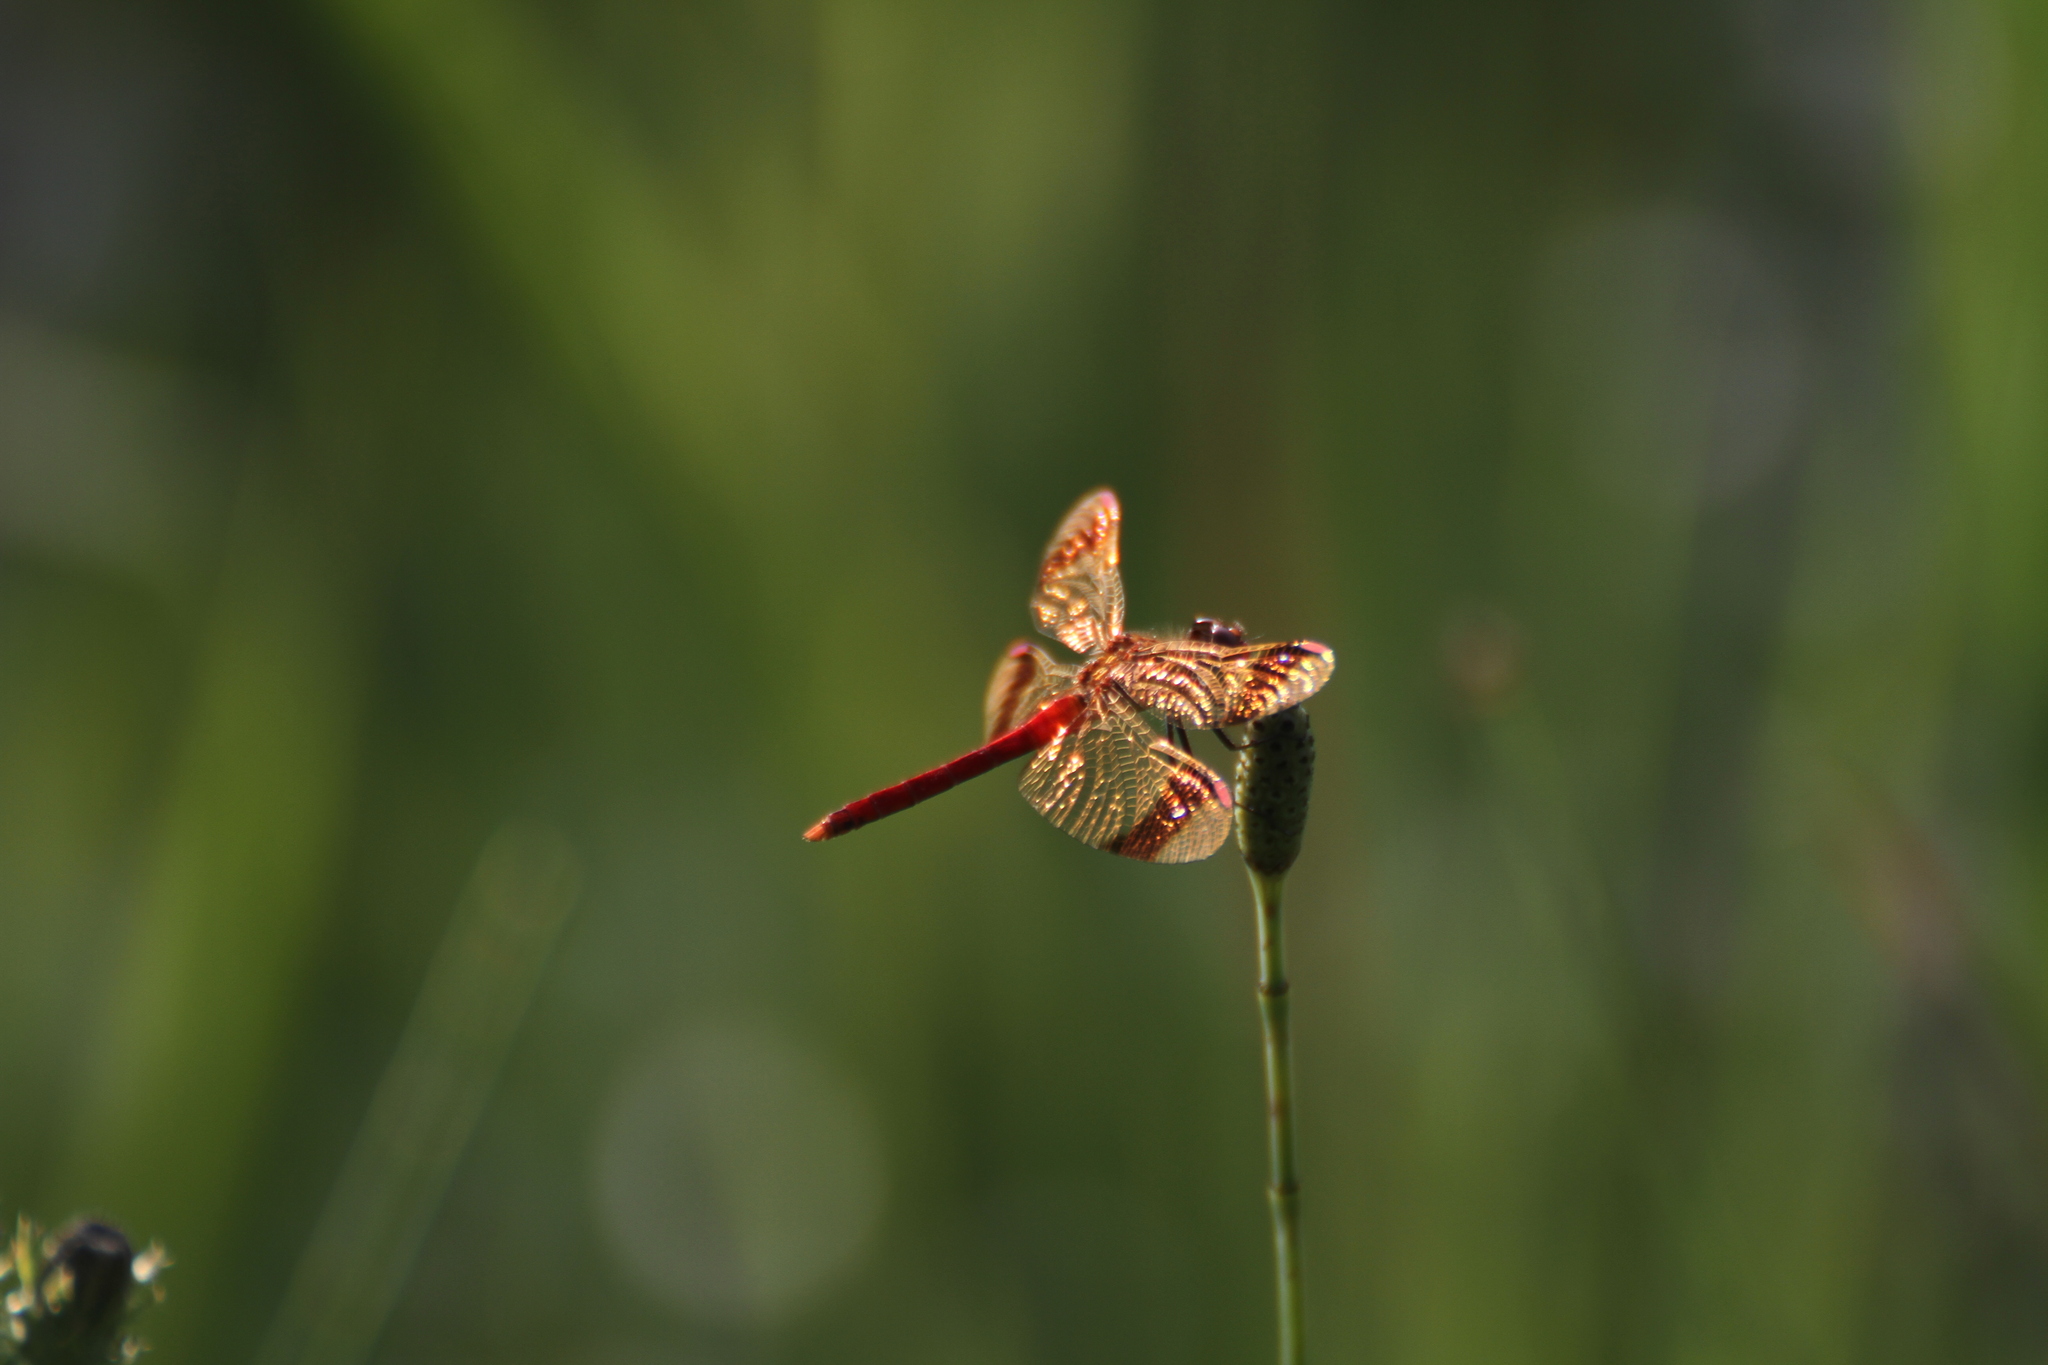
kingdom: Animalia
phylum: Arthropoda
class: Insecta
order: Odonata
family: Libellulidae
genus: Sympetrum
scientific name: Sympetrum pedemontanum
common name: Banded darter
